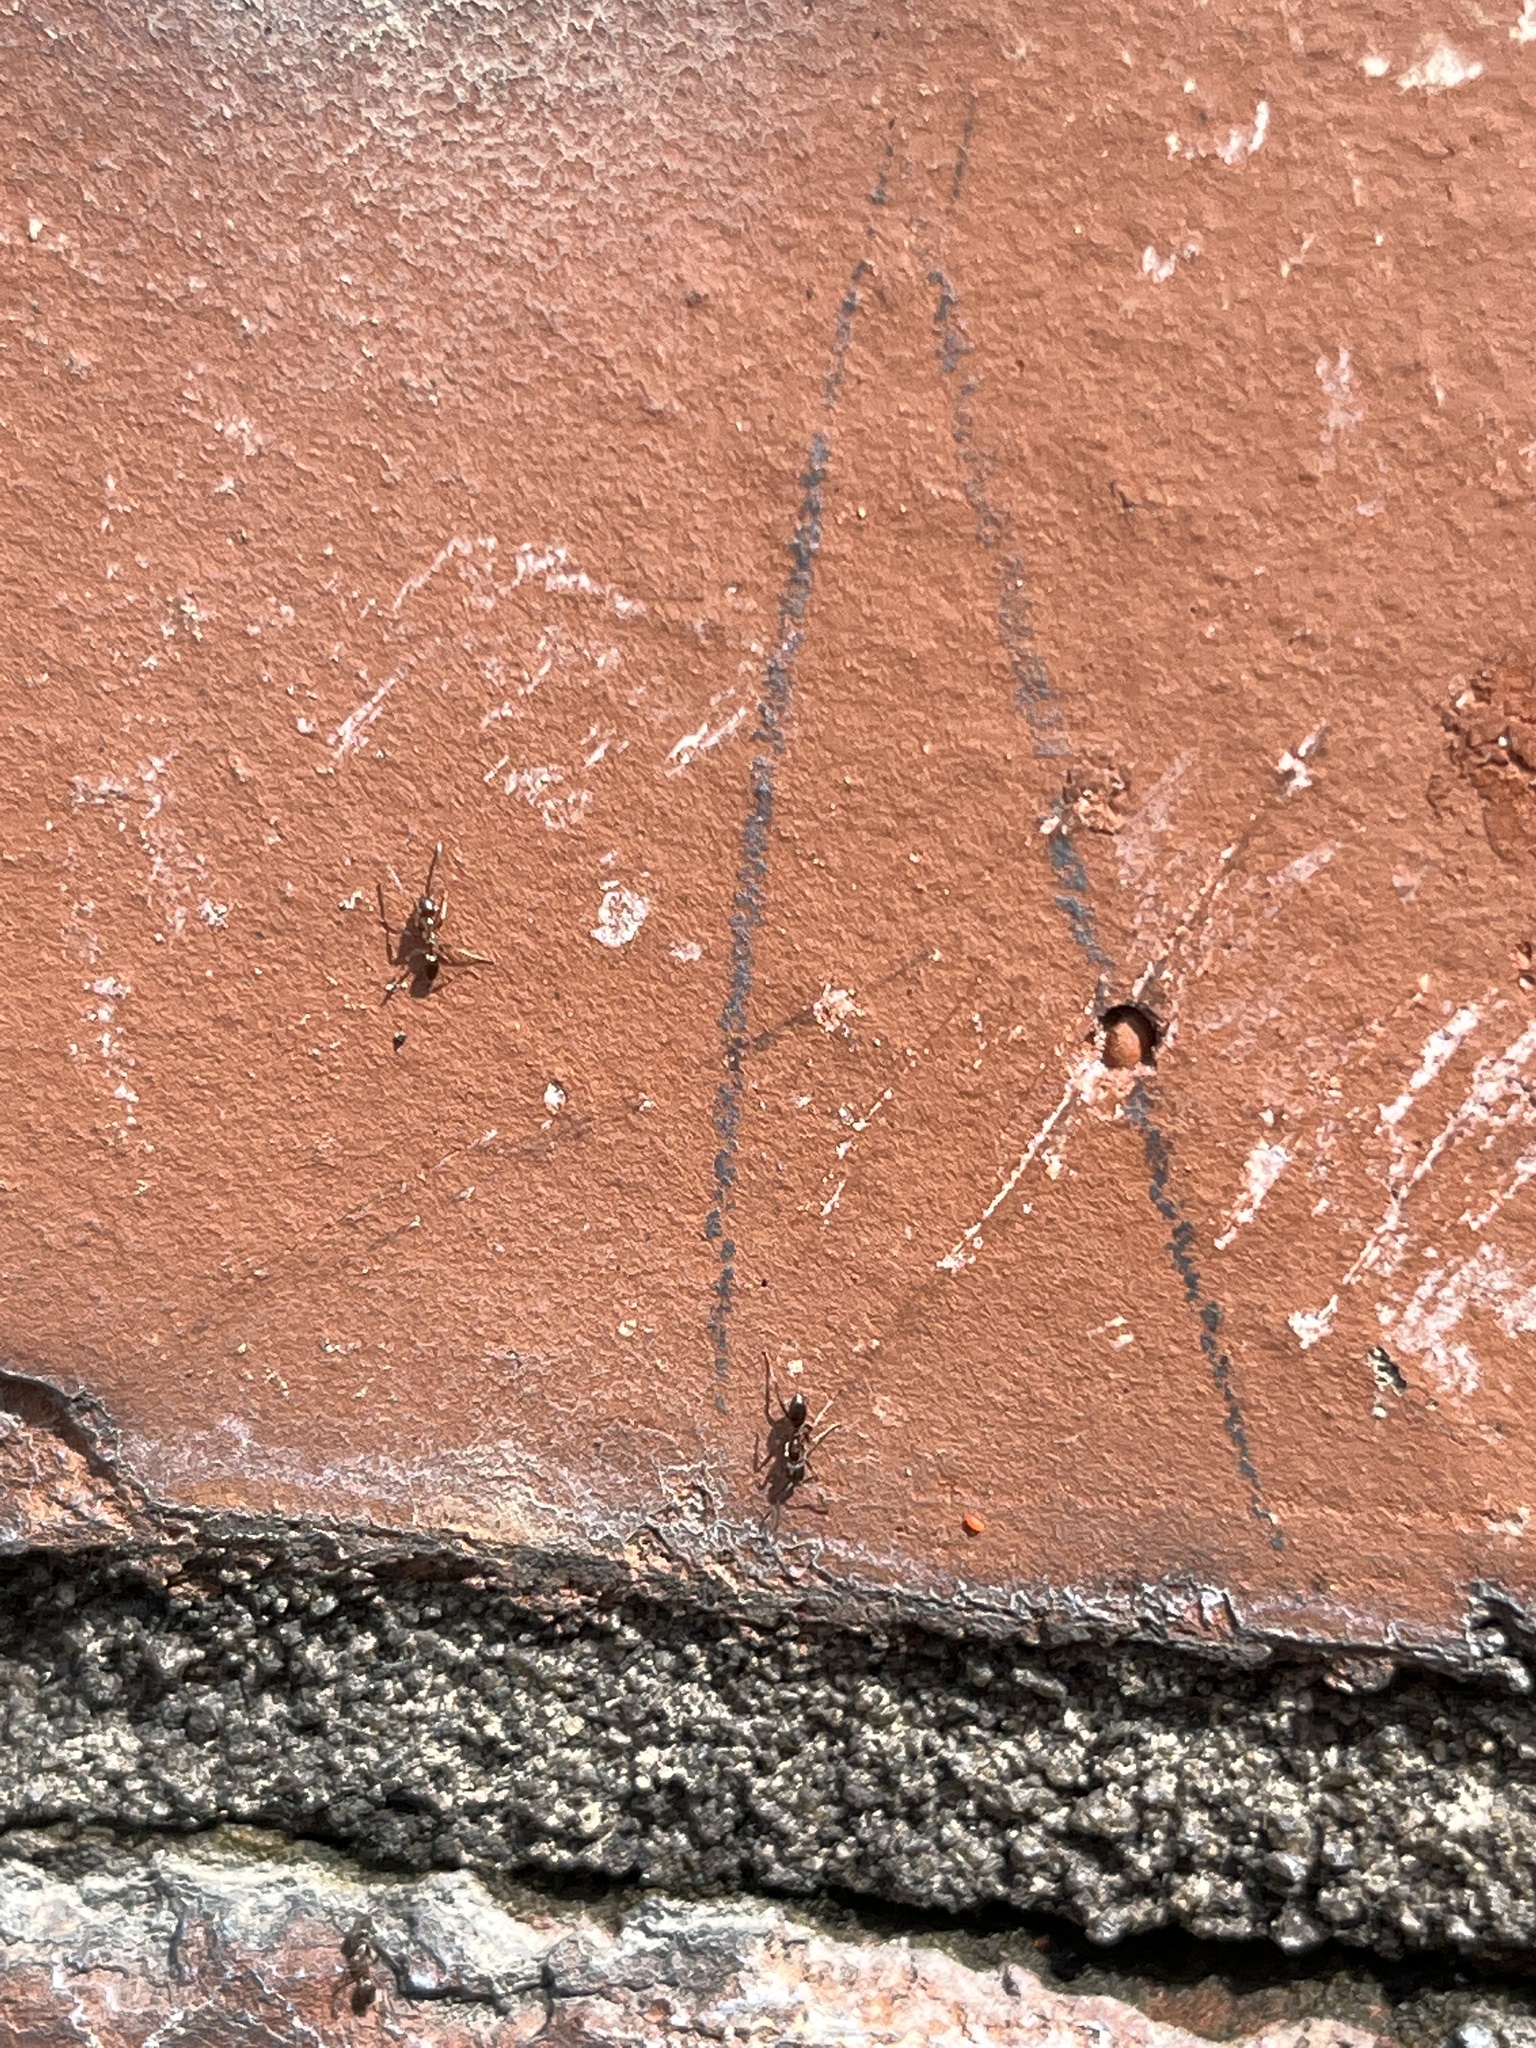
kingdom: Animalia
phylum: Arthropoda
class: Insecta
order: Hymenoptera
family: Formicidae
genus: Linepithema
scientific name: Linepithema humile
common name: Argentine ant
